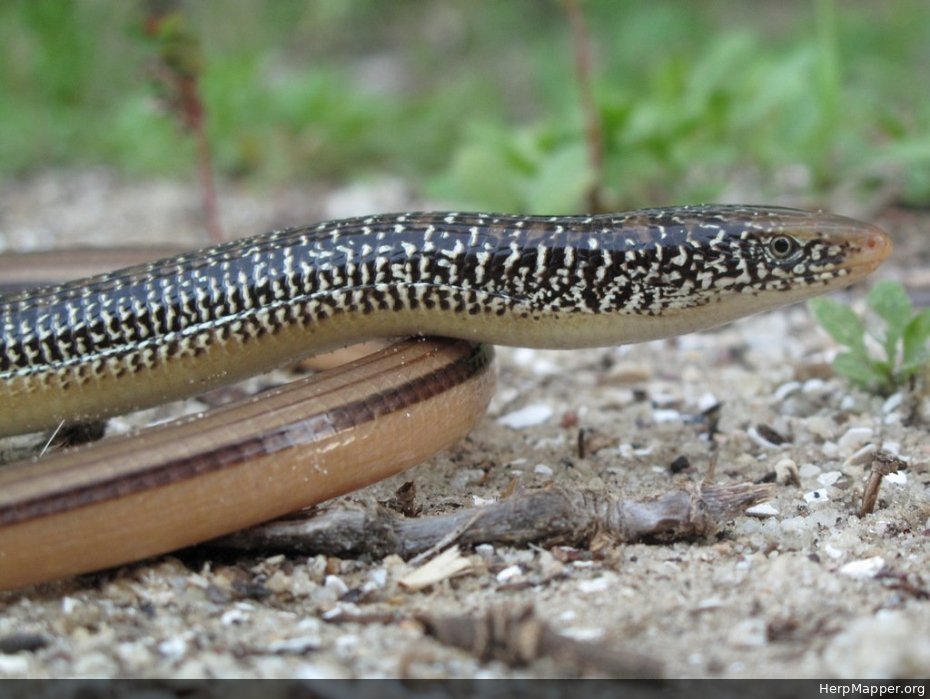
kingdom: Animalia
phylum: Chordata
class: Squamata
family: Anguidae
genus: Ophisaurus
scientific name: Ophisaurus compressus
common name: Island glass lizard
